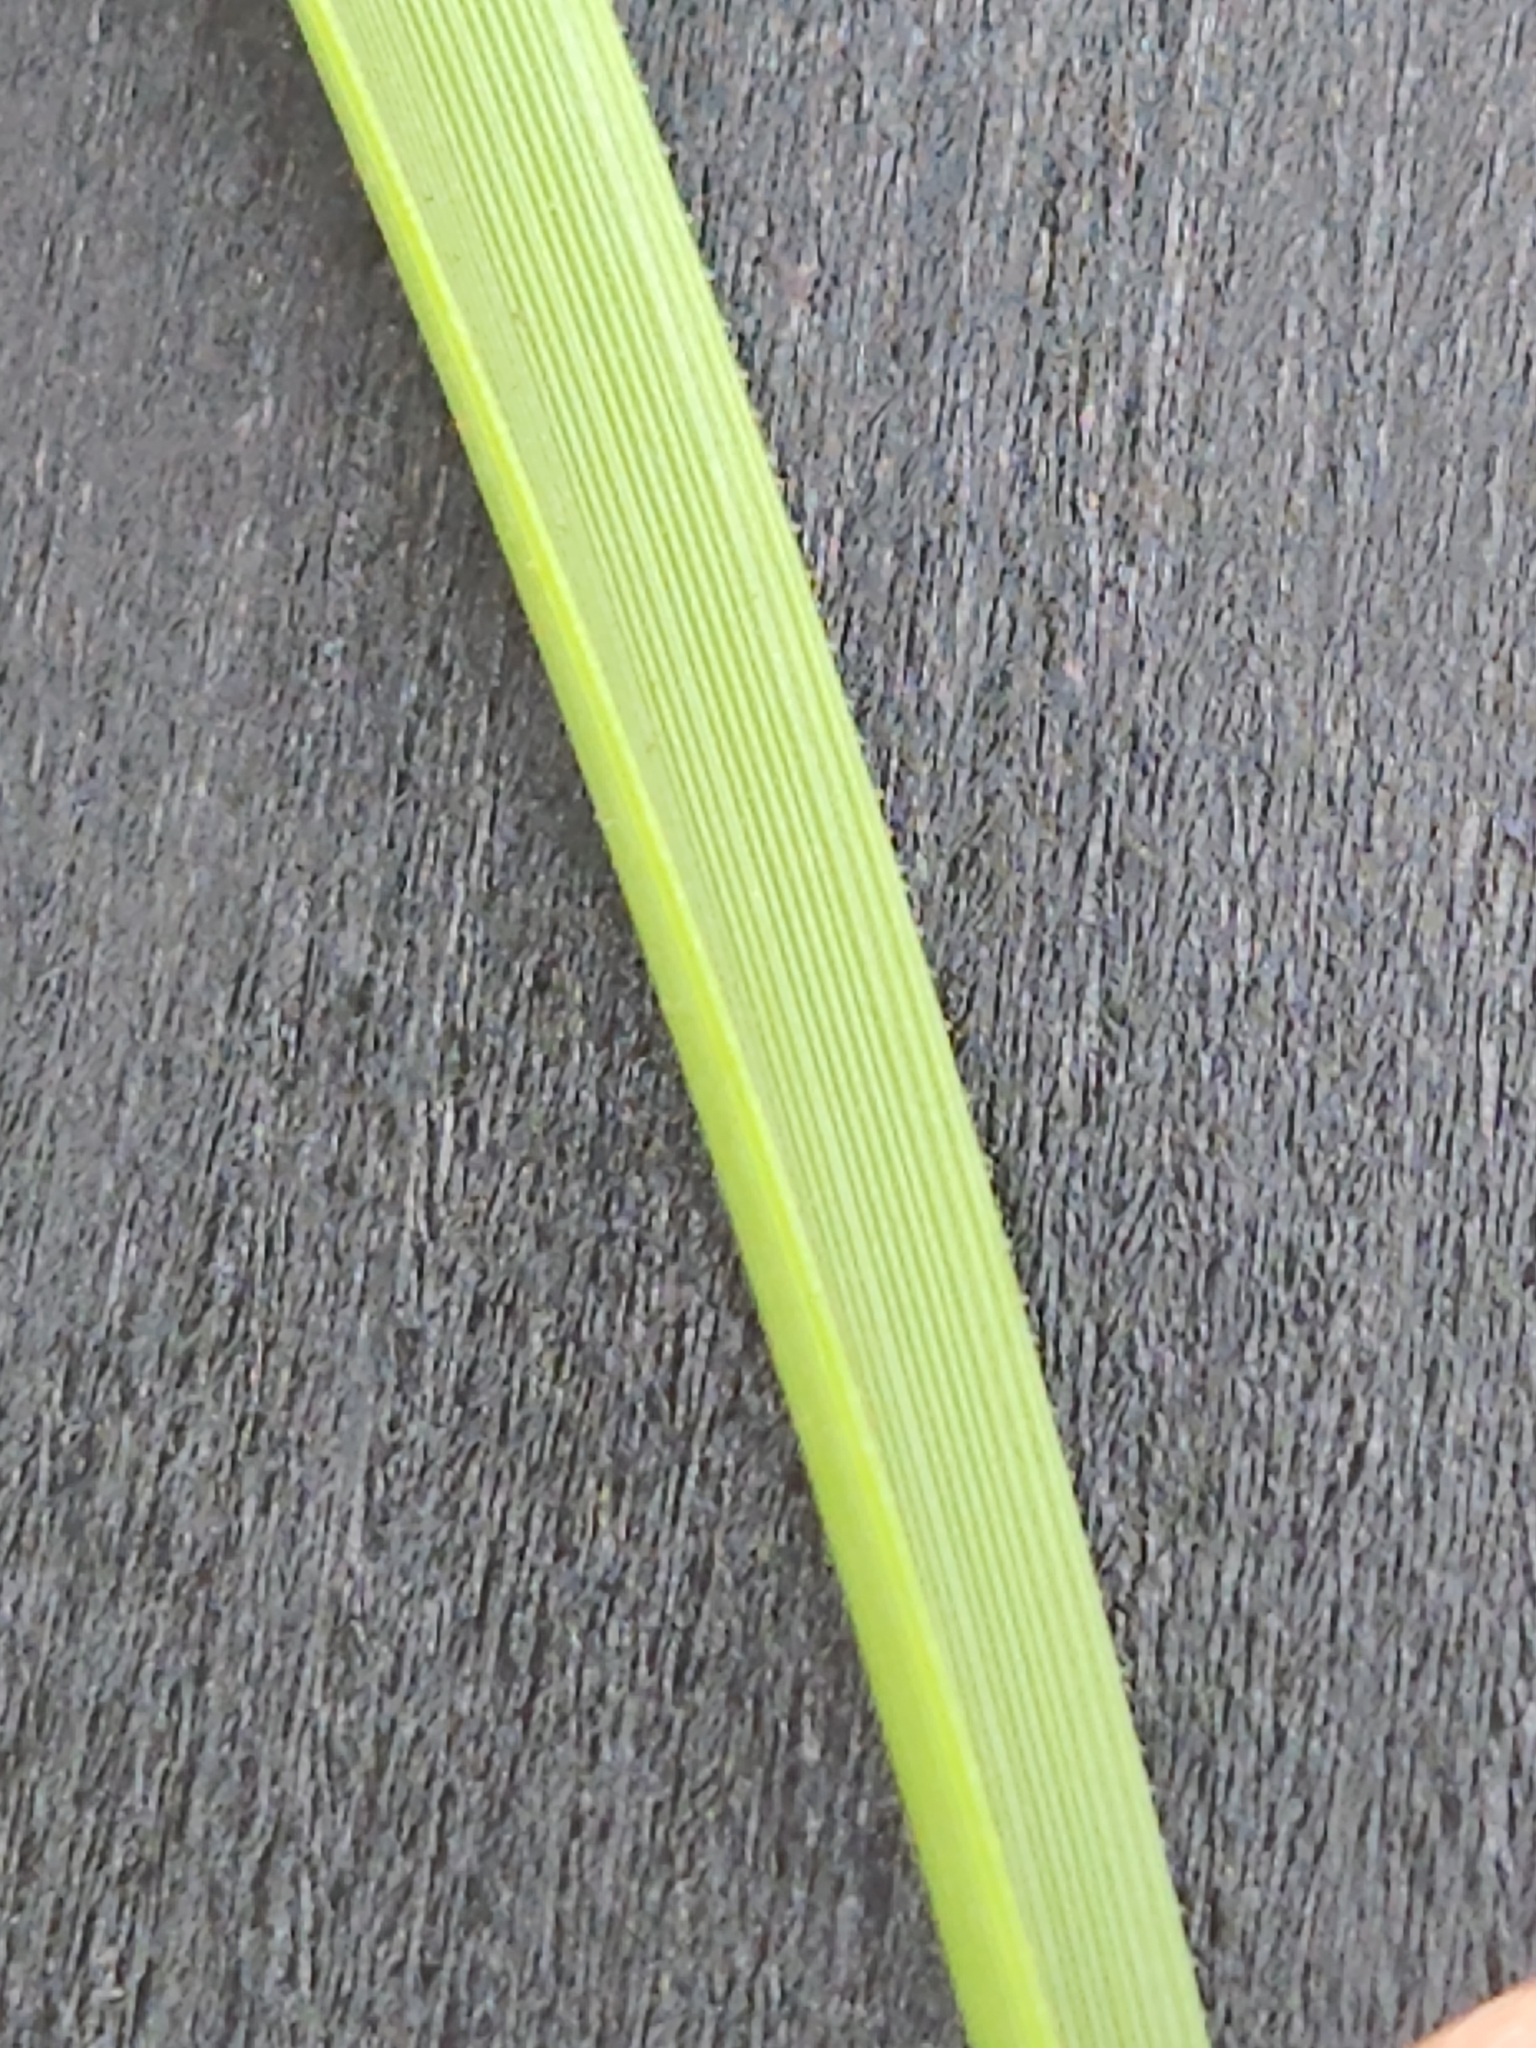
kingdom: Plantae
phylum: Tracheophyta
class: Liliopsida
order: Asparagales
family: Asparagaceae
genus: Nolina
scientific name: Nolina lindheimeriana
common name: Lindheimer's bear-grass
